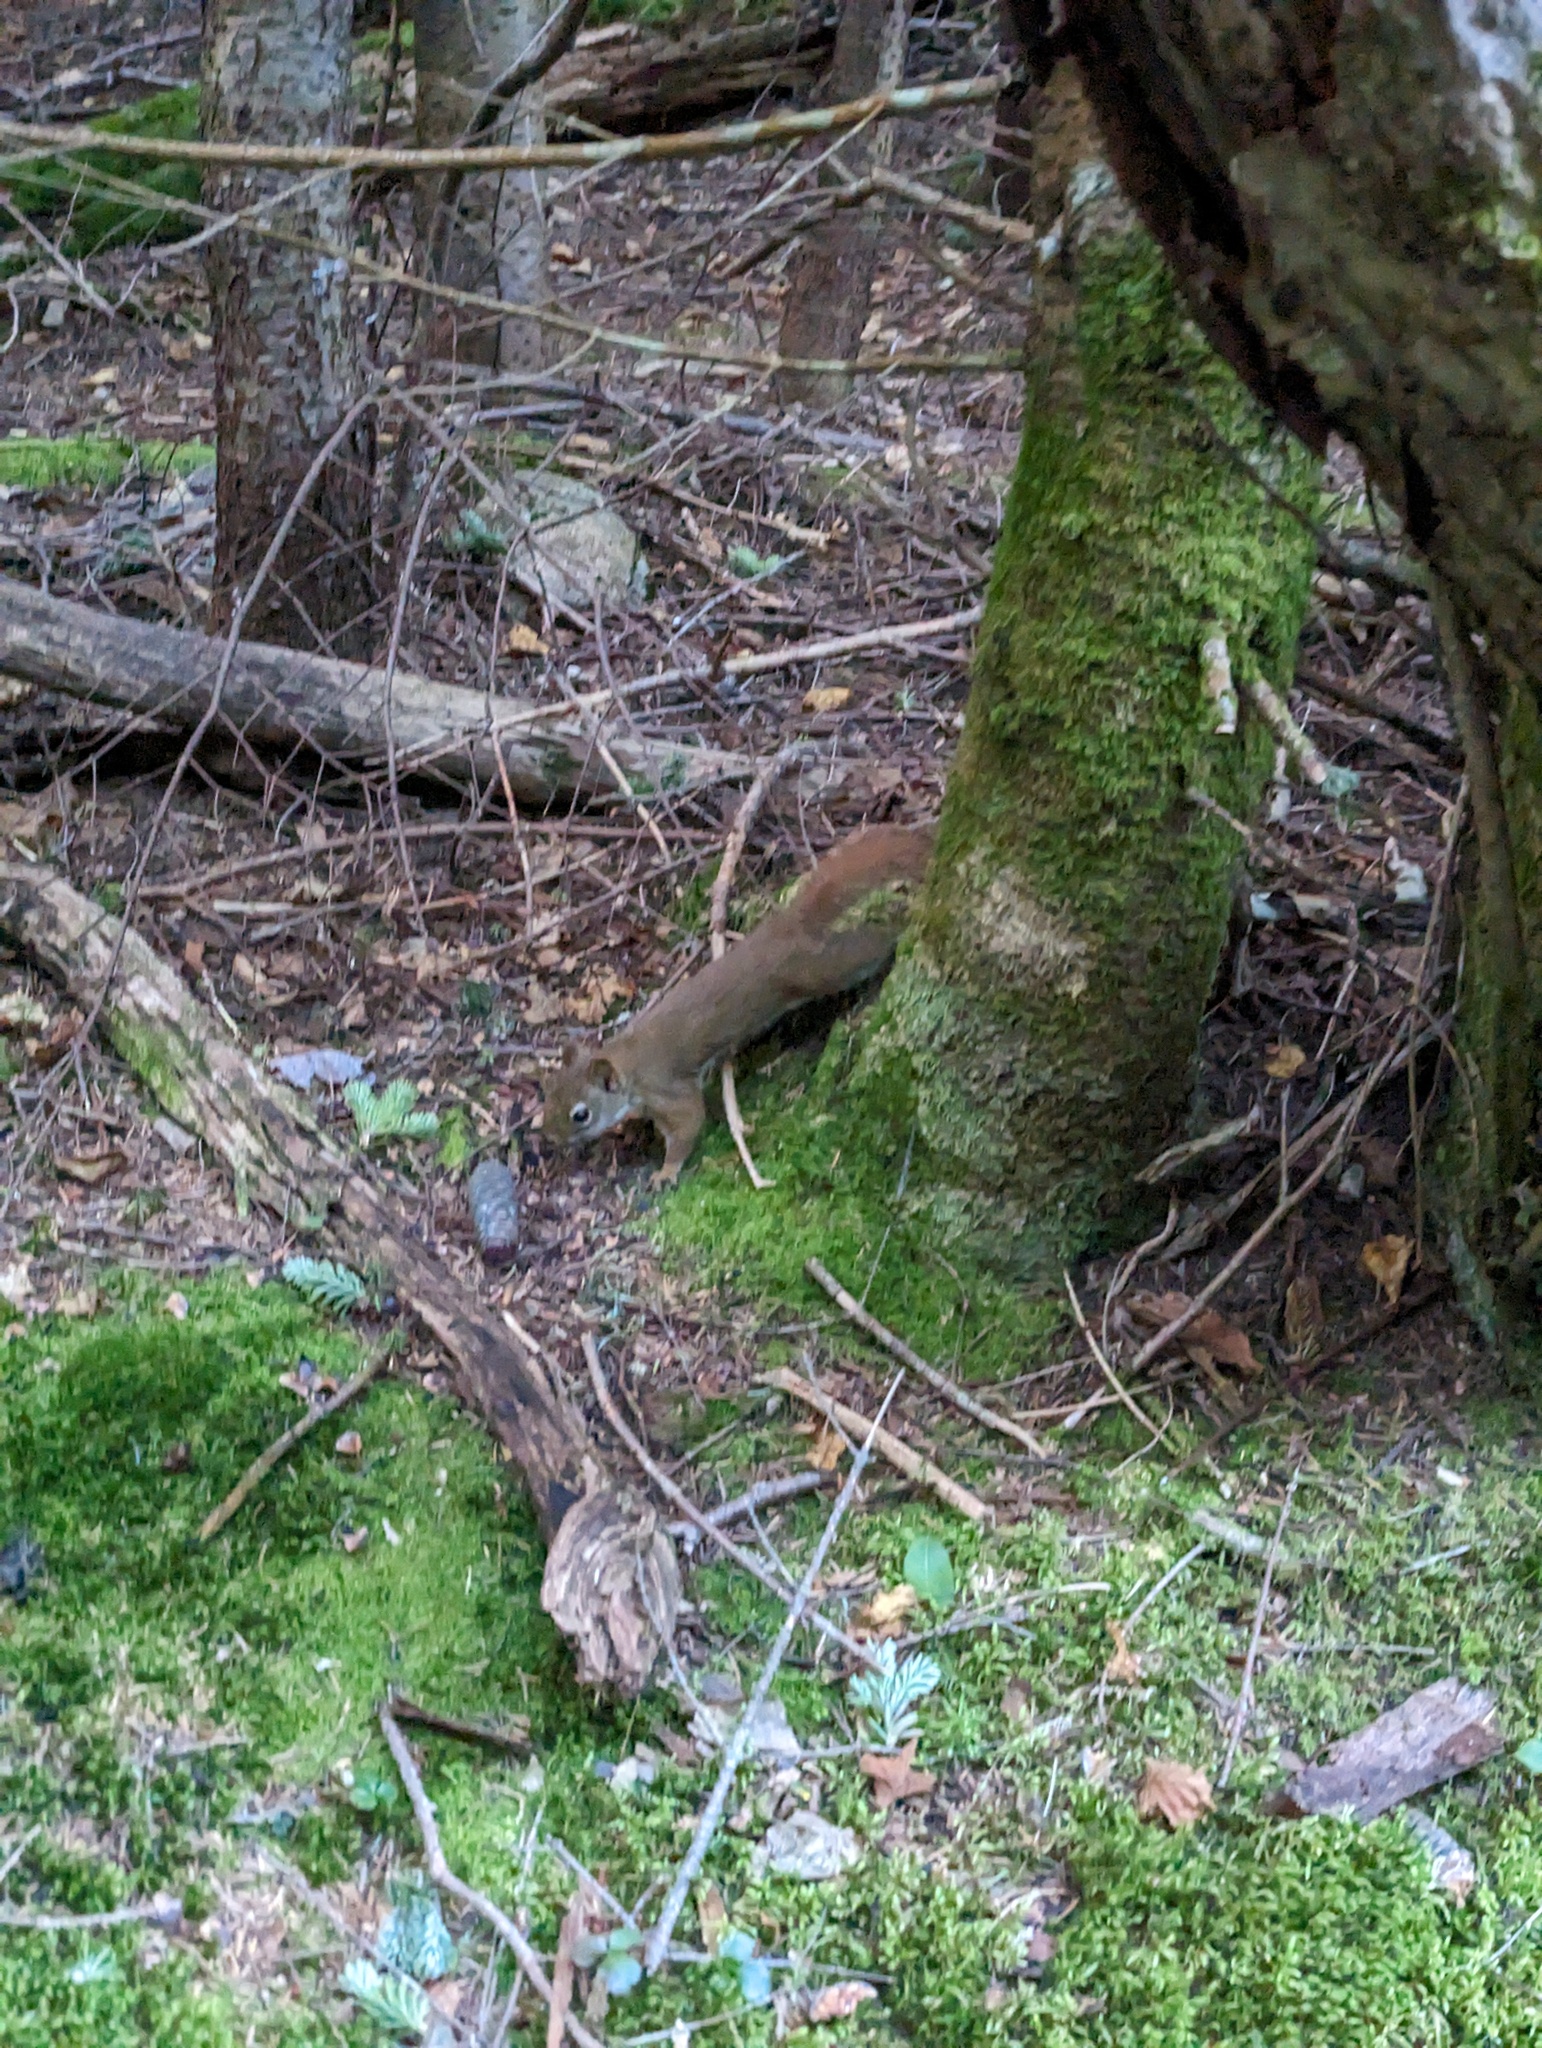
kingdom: Animalia
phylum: Chordata
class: Mammalia
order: Rodentia
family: Sciuridae
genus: Tamiasciurus
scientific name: Tamiasciurus hudsonicus
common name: Red squirrel
